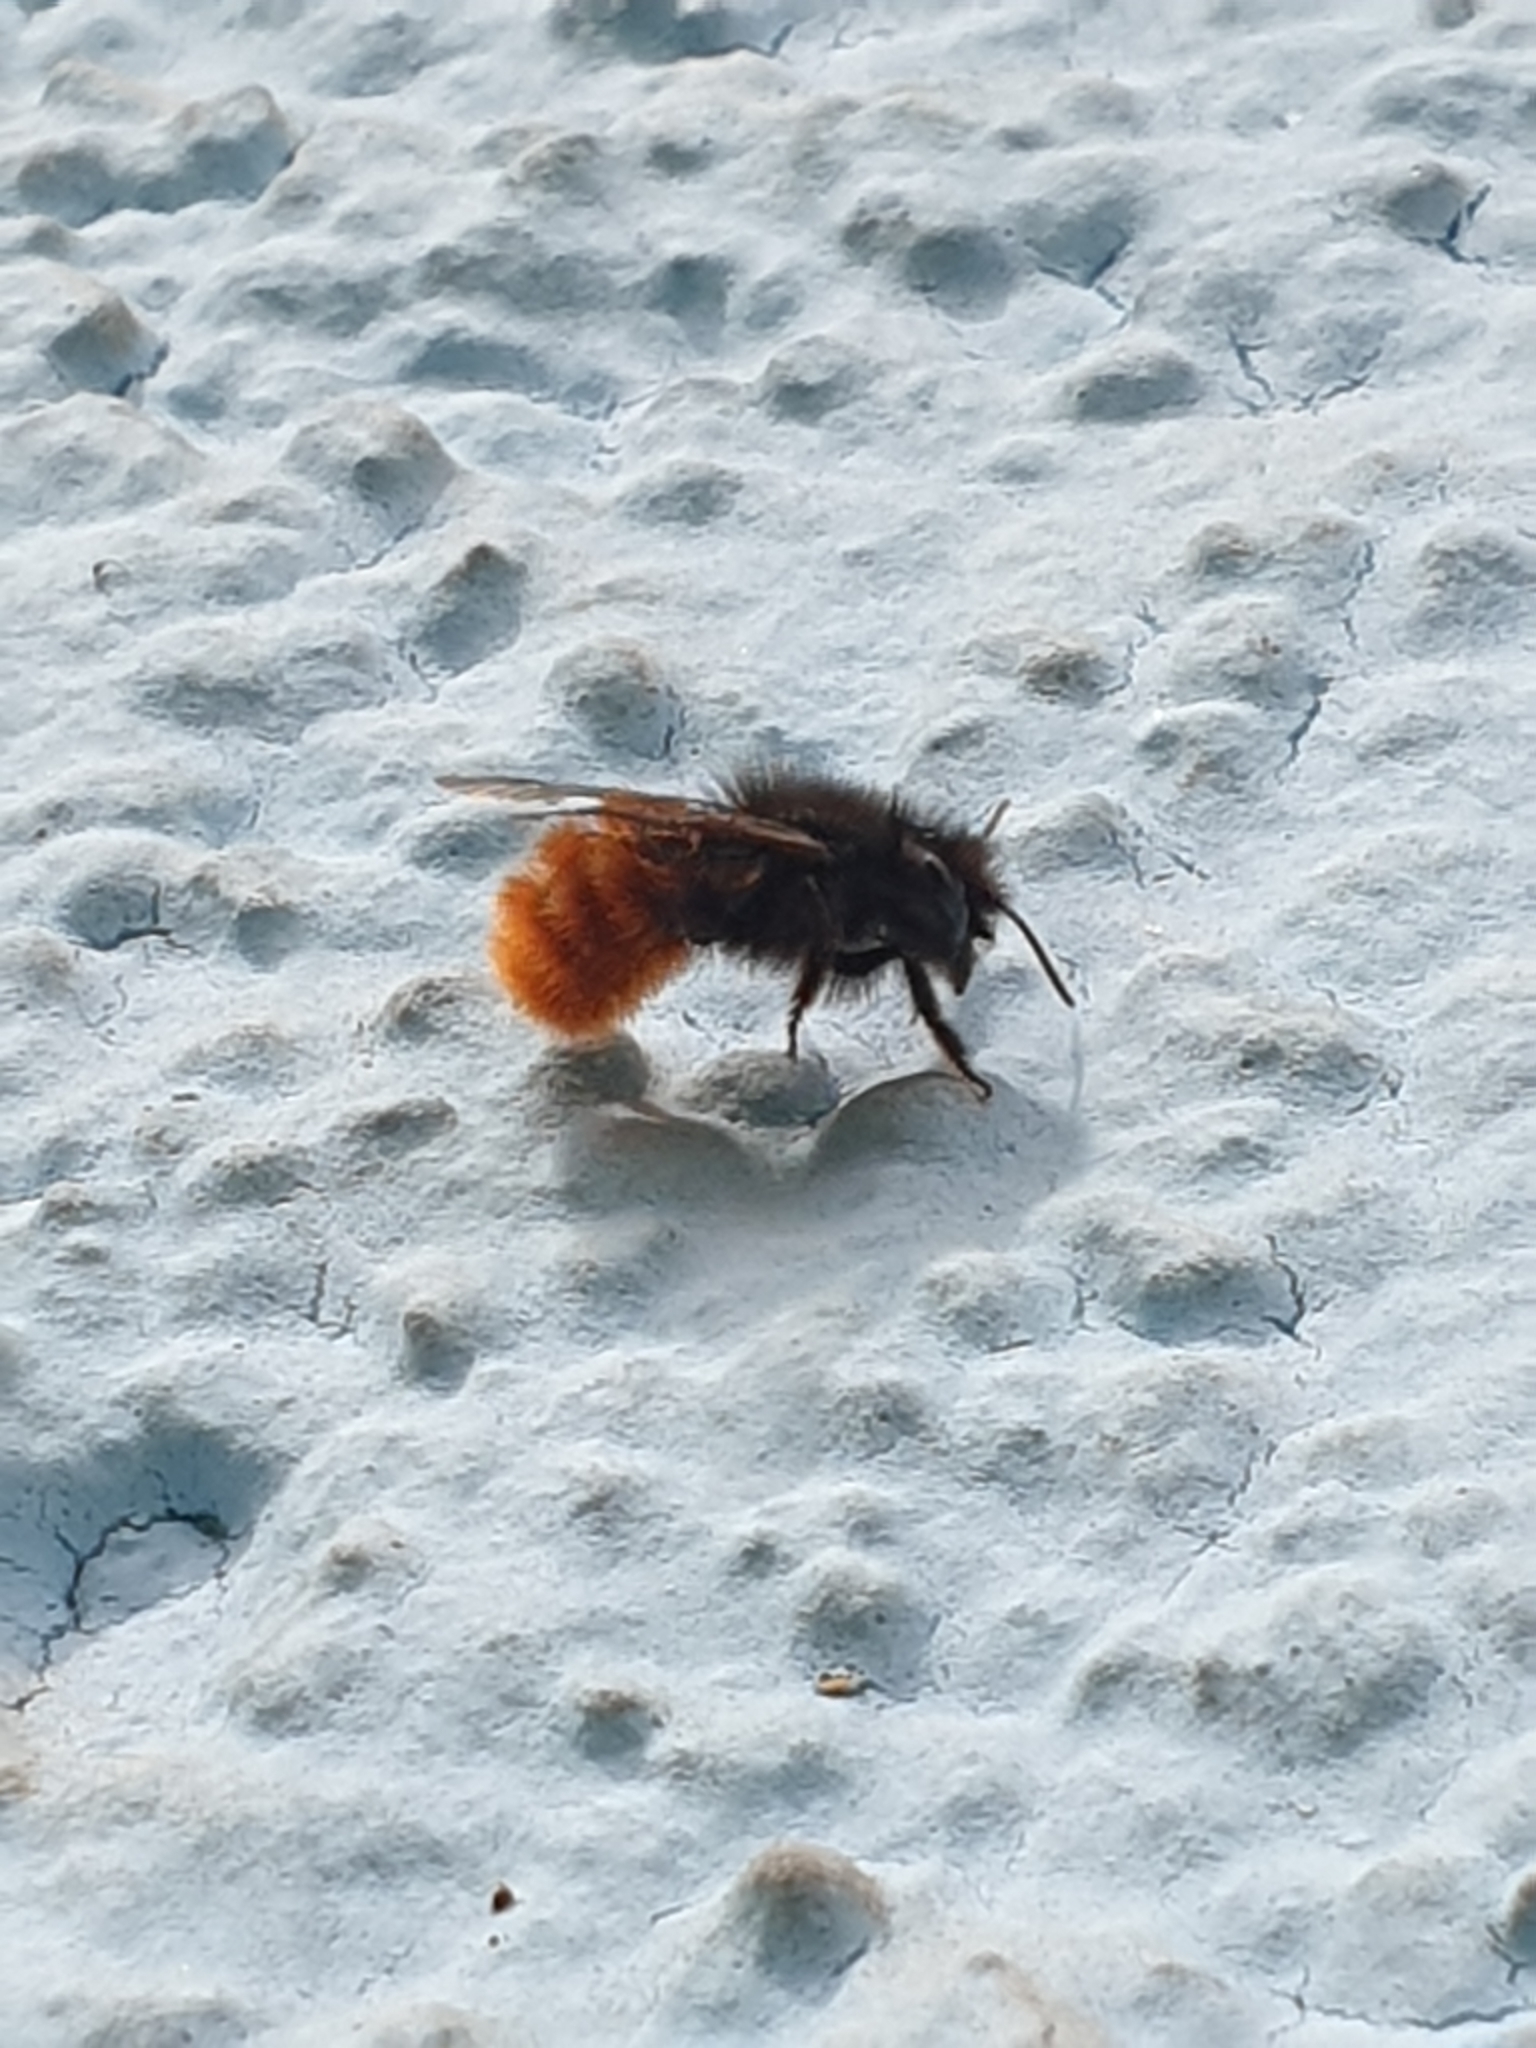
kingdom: Animalia
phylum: Arthropoda
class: Insecta
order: Hymenoptera
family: Megachilidae
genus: Osmia
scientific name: Osmia cornuta
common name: Mason bee
